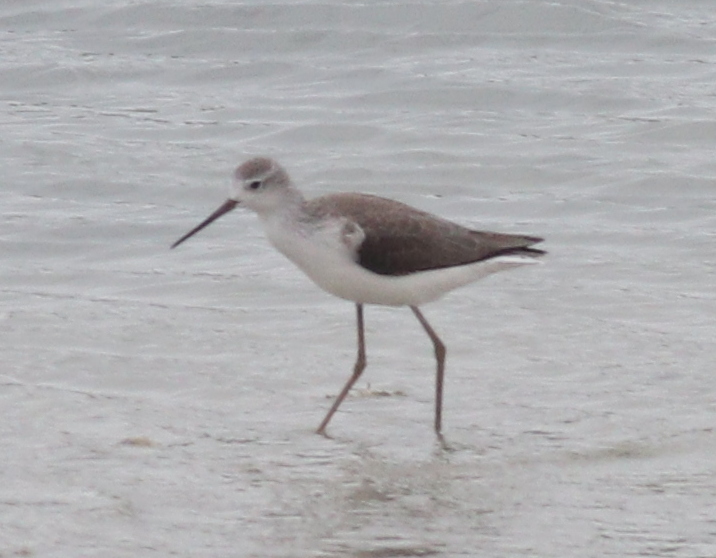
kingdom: Animalia
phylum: Chordata
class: Aves
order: Charadriiformes
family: Scolopacidae
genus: Tringa
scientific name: Tringa stagnatilis
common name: Marsh sandpiper
